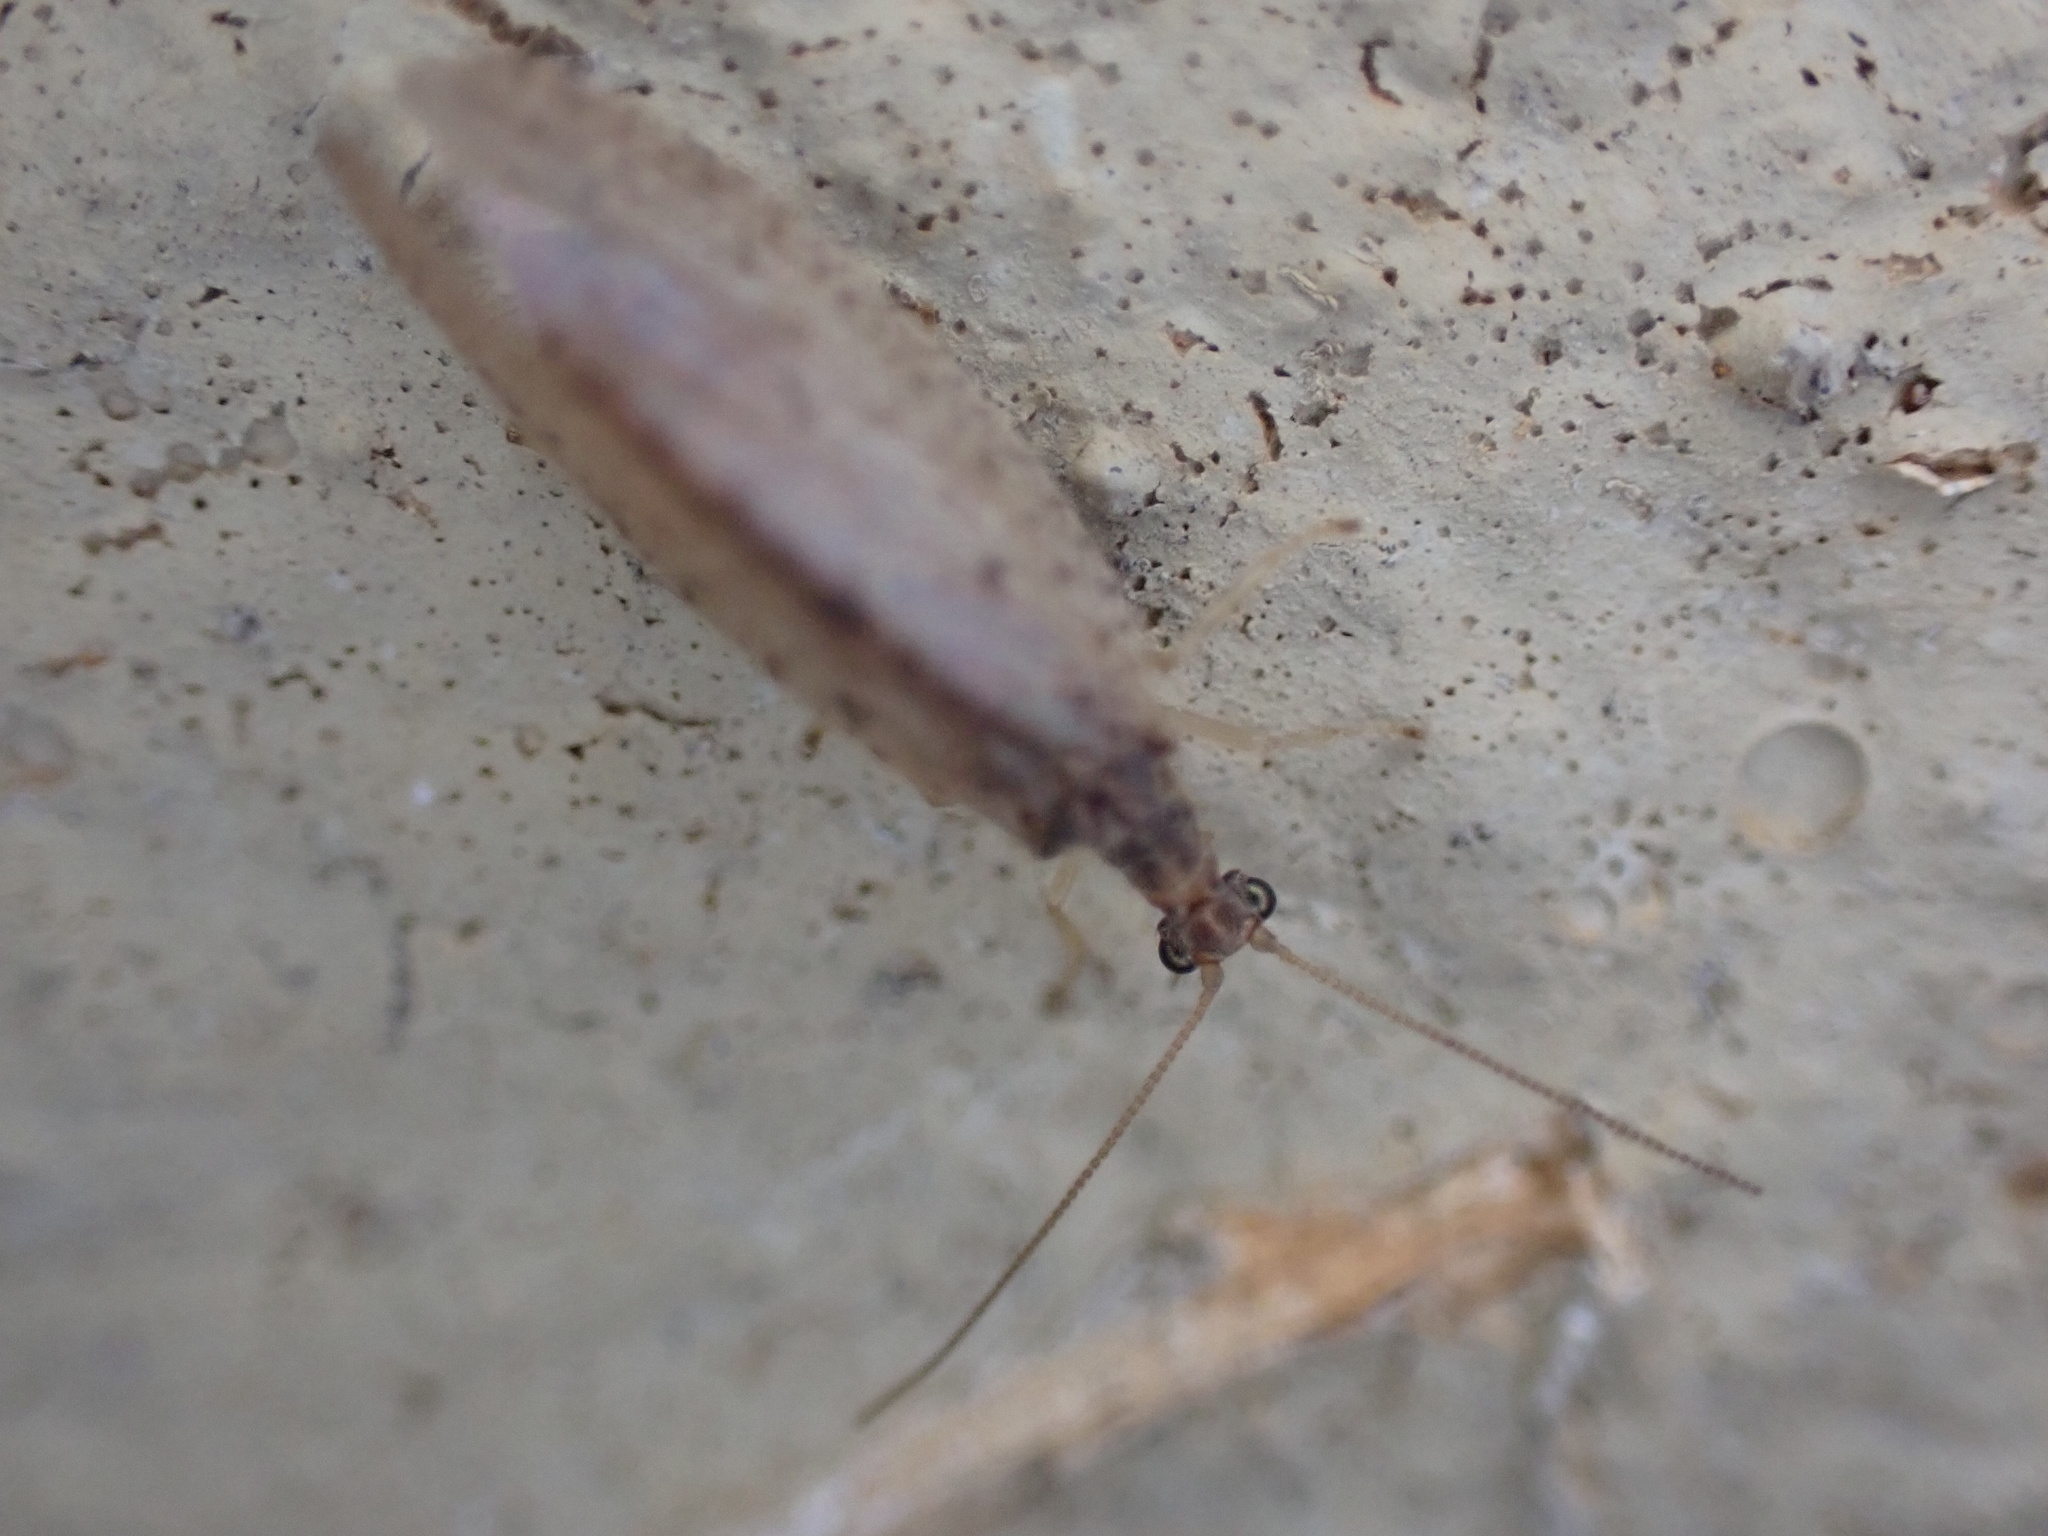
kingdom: Animalia
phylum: Arthropoda
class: Insecta
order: Neuroptera
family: Hemerobiidae
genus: Micromus
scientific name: Micromus subanticus
